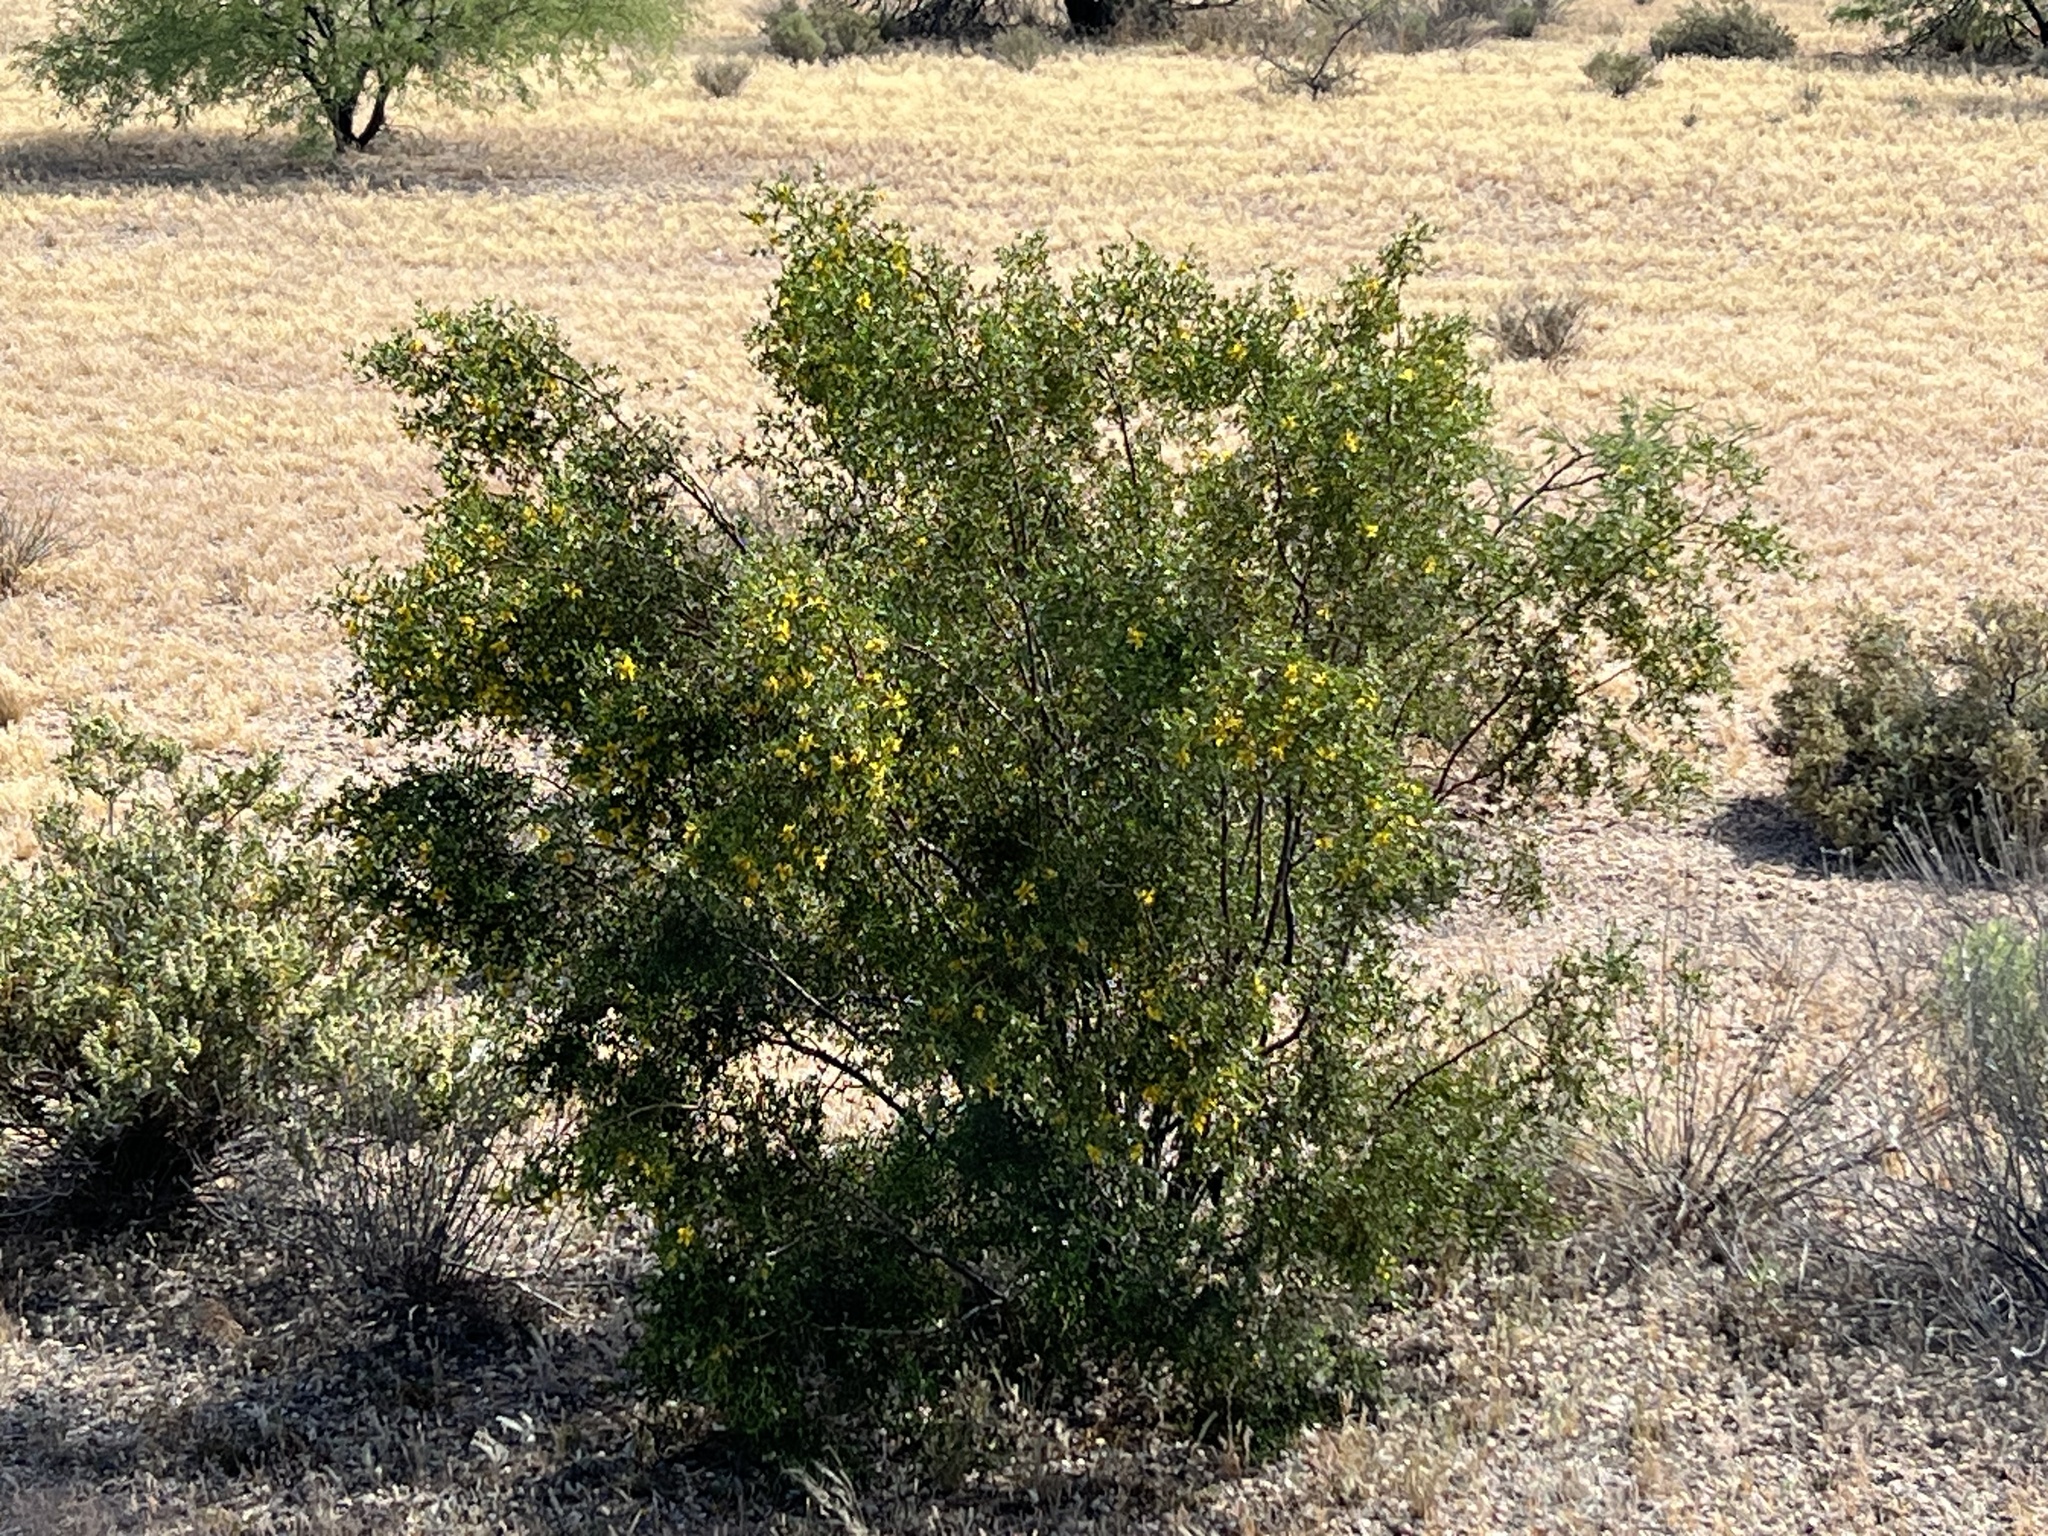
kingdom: Plantae
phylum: Tracheophyta
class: Magnoliopsida
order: Zygophyllales
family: Zygophyllaceae
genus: Larrea
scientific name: Larrea tridentata
